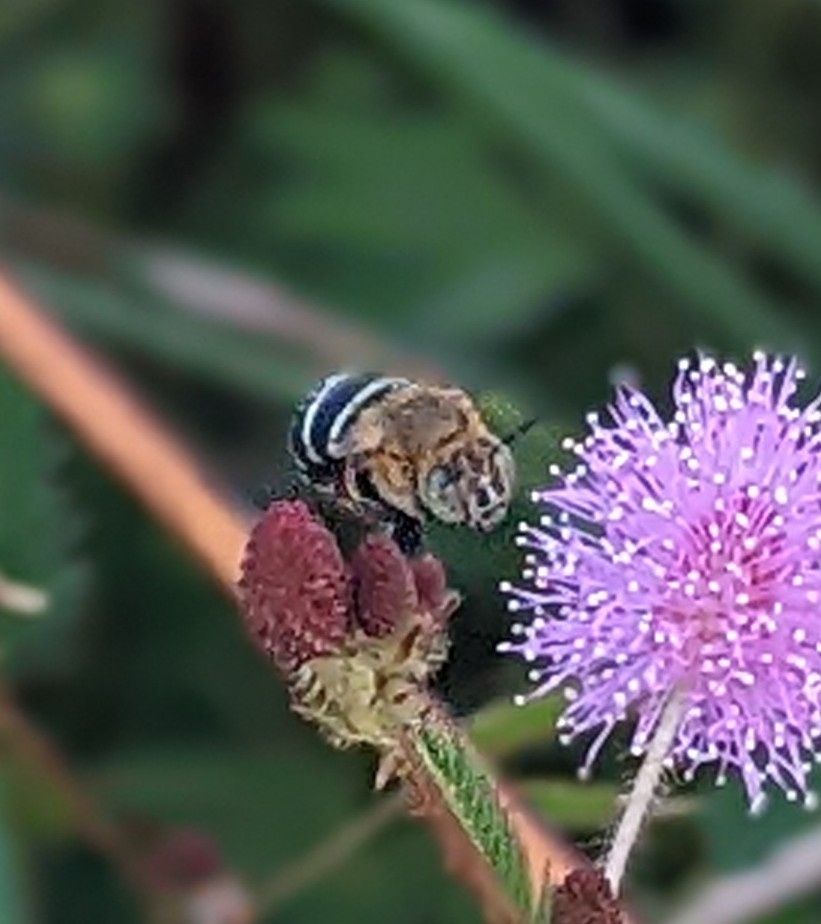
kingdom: Animalia
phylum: Arthropoda
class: Insecta
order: Hymenoptera
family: Apidae
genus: Amegilla
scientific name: Amegilla pulchra
